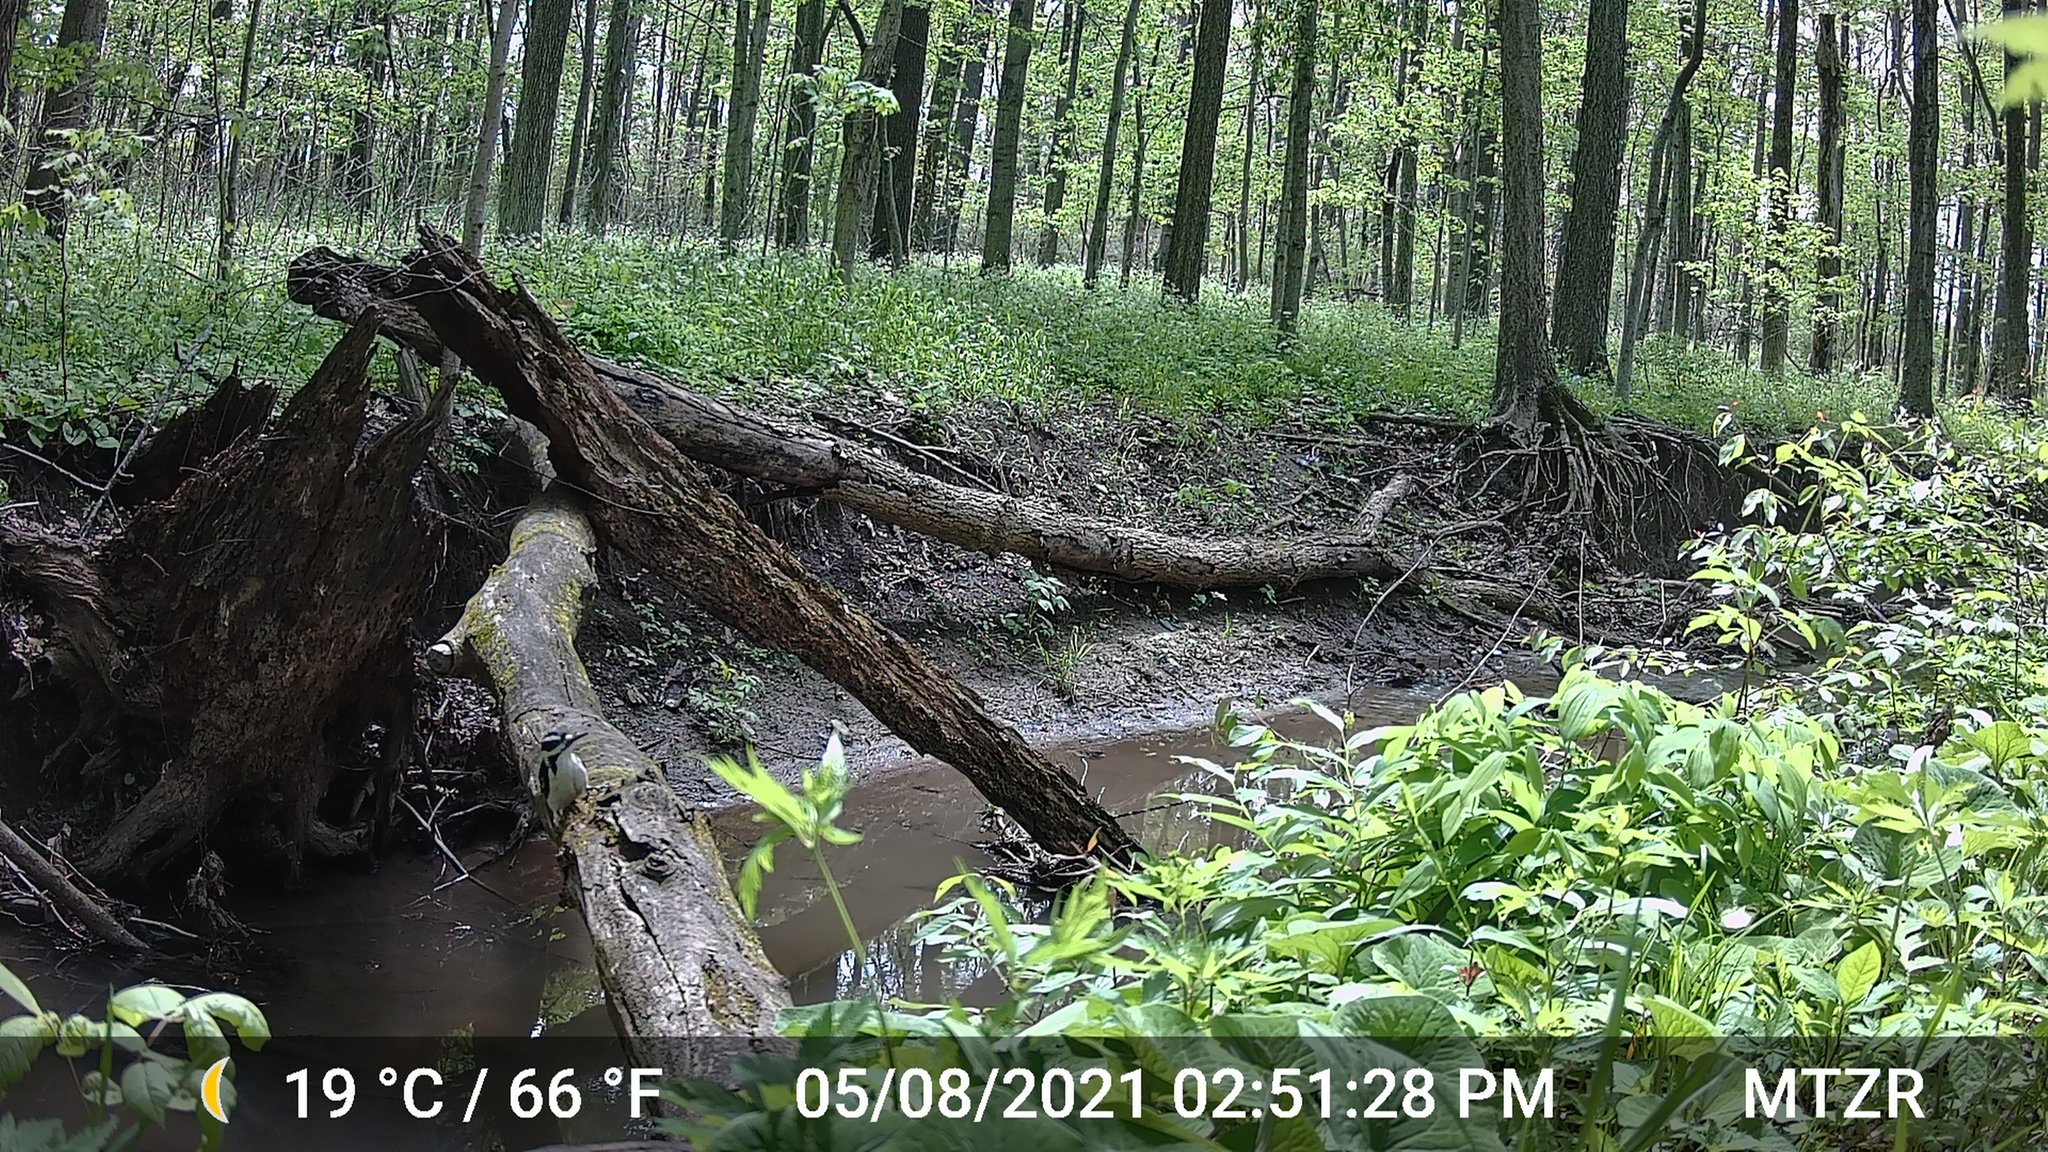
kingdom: Animalia
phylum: Chordata
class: Aves
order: Piciformes
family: Picidae
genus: Leuconotopicus
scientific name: Leuconotopicus villosus
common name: Hairy woodpecker
